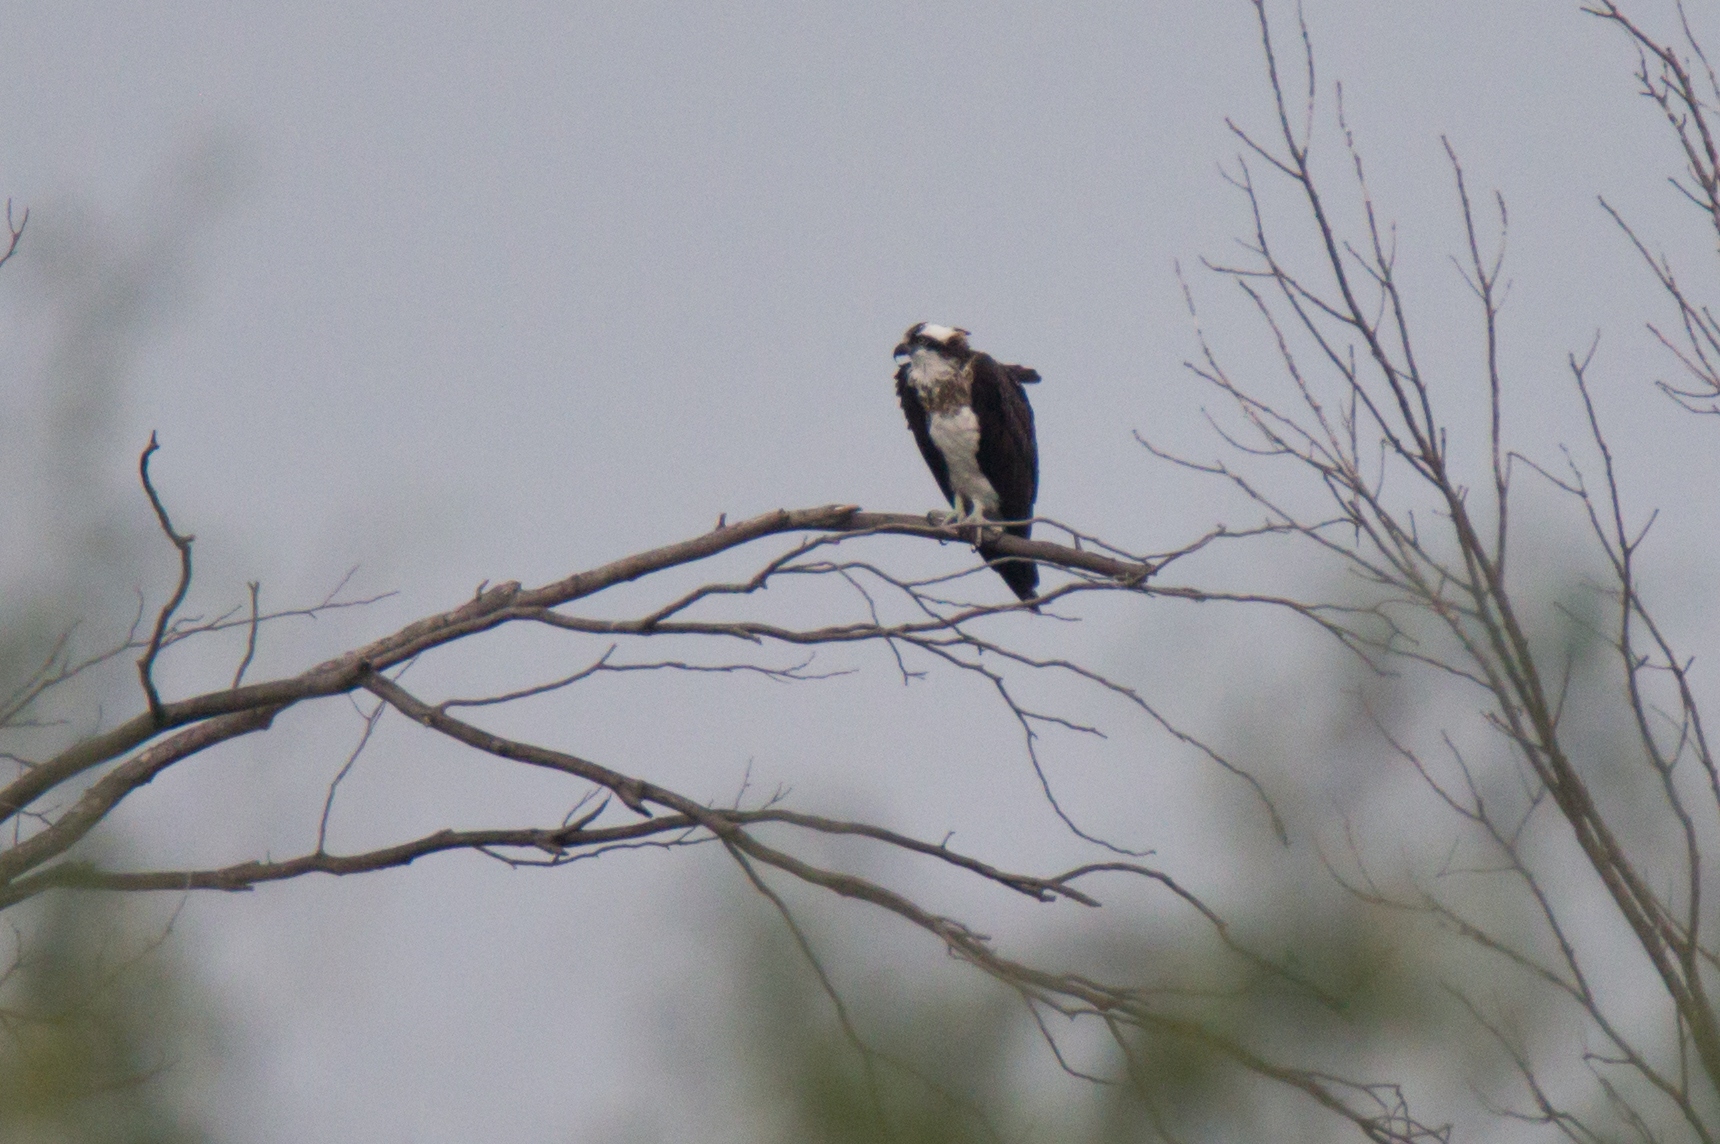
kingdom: Animalia
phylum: Chordata
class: Aves
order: Accipitriformes
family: Pandionidae
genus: Pandion
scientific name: Pandion haliaetus
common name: Osprey
